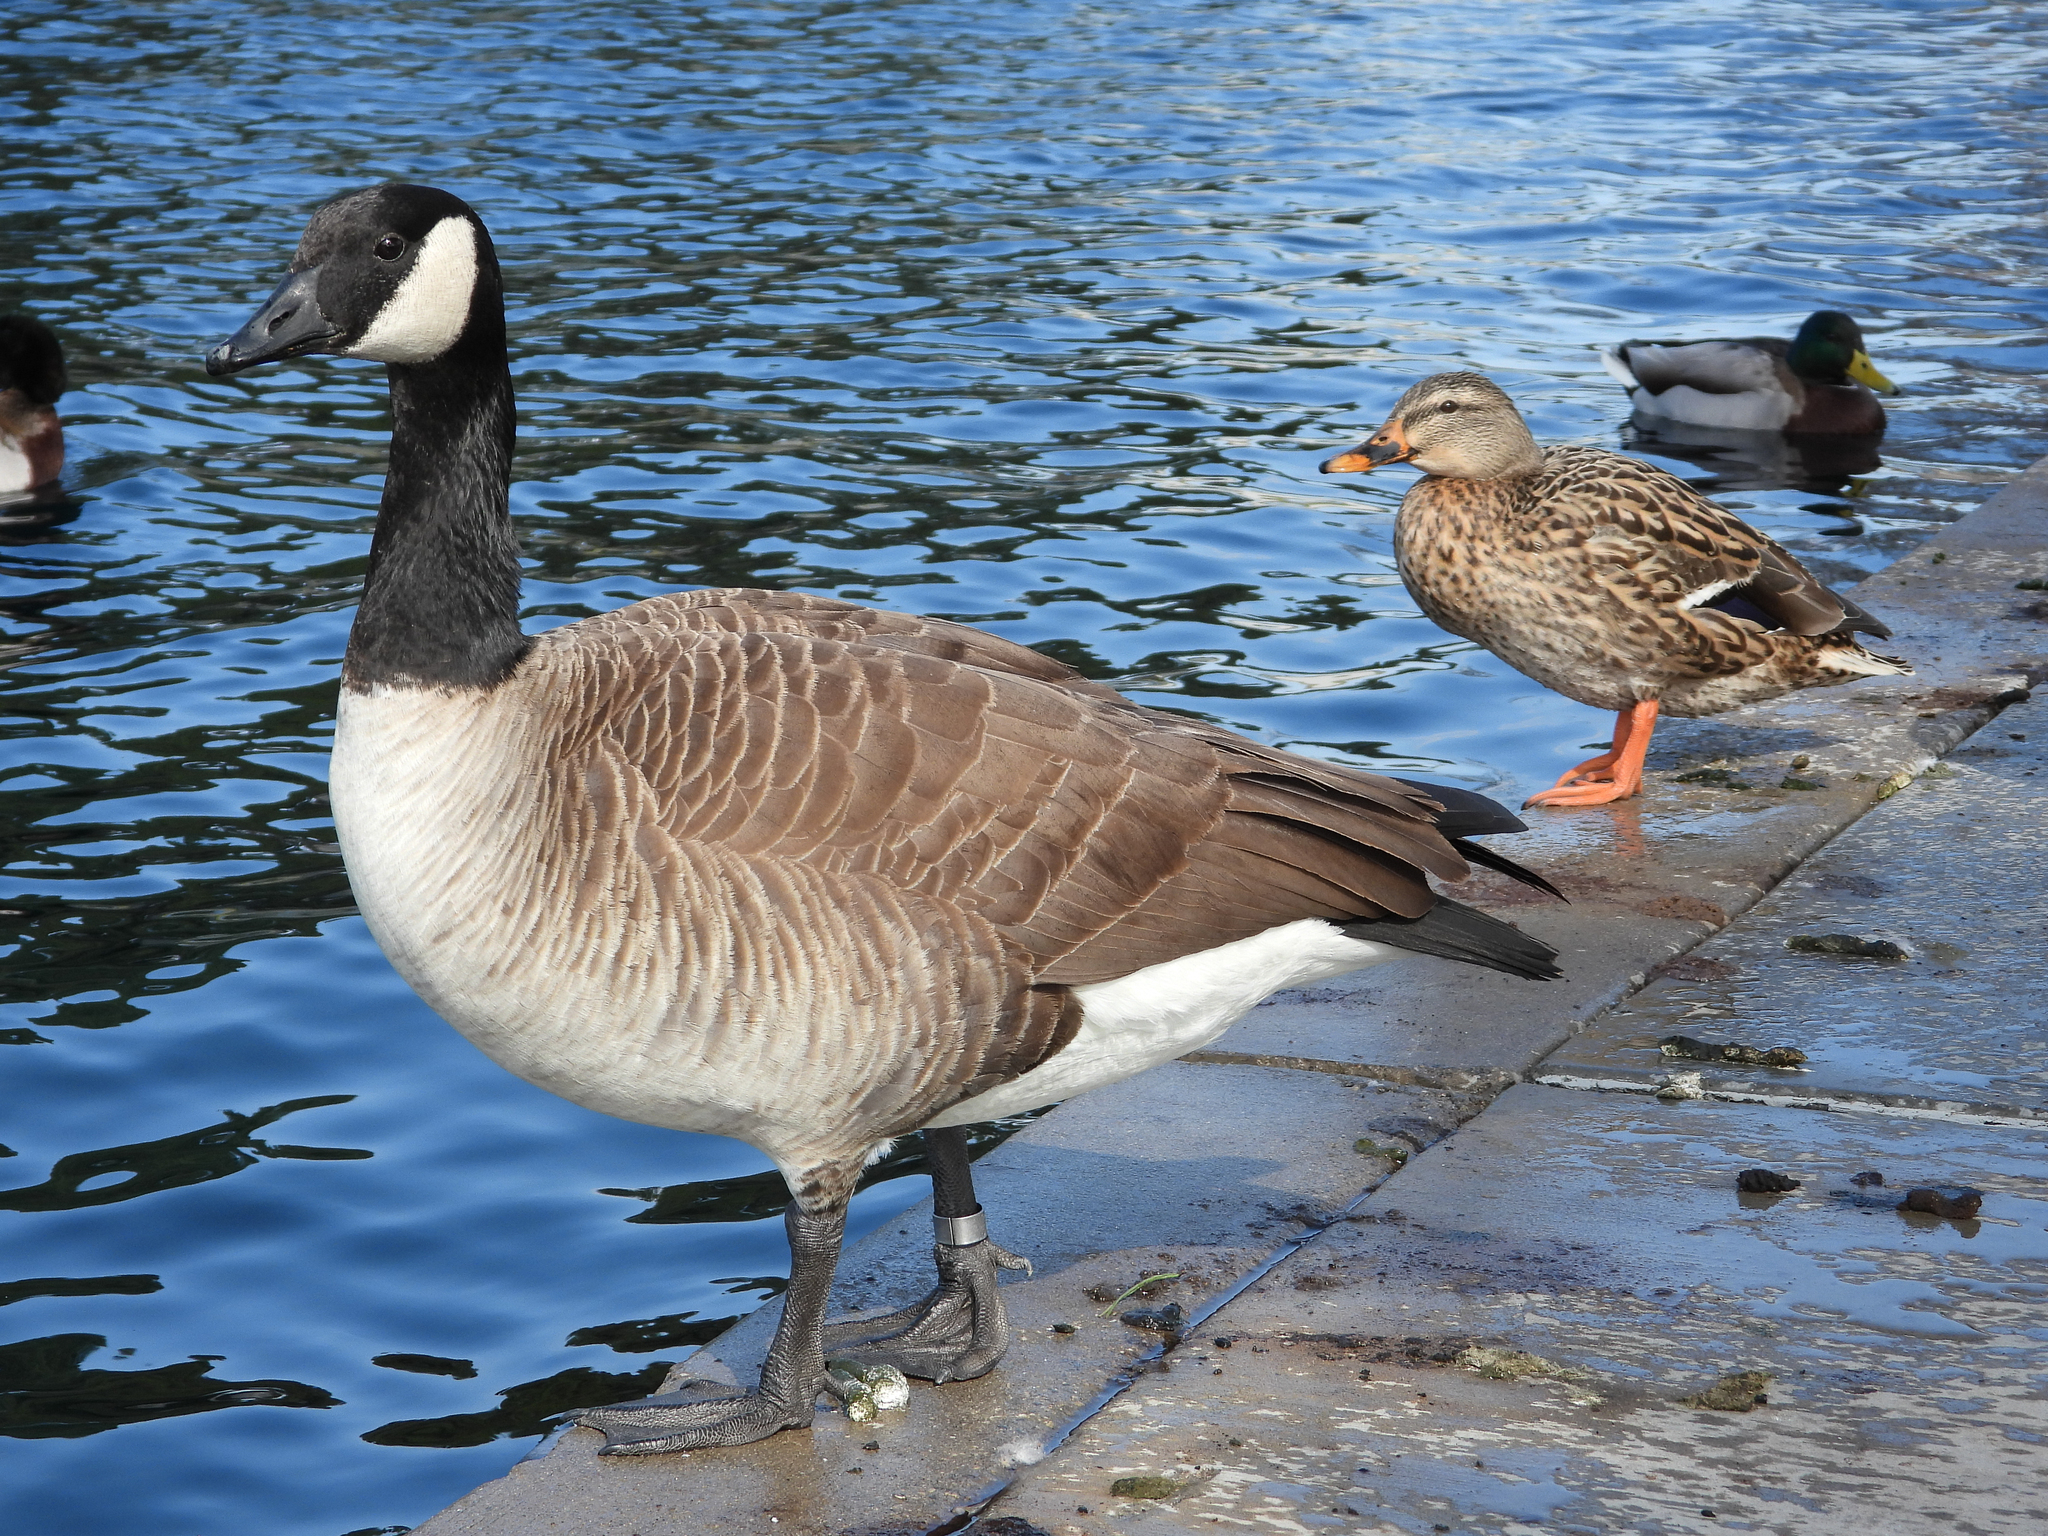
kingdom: Animalia
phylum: Chordata
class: Aves
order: Anseriformes
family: Anatidae
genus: Branta
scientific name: Branta canadensis
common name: Canada goose
